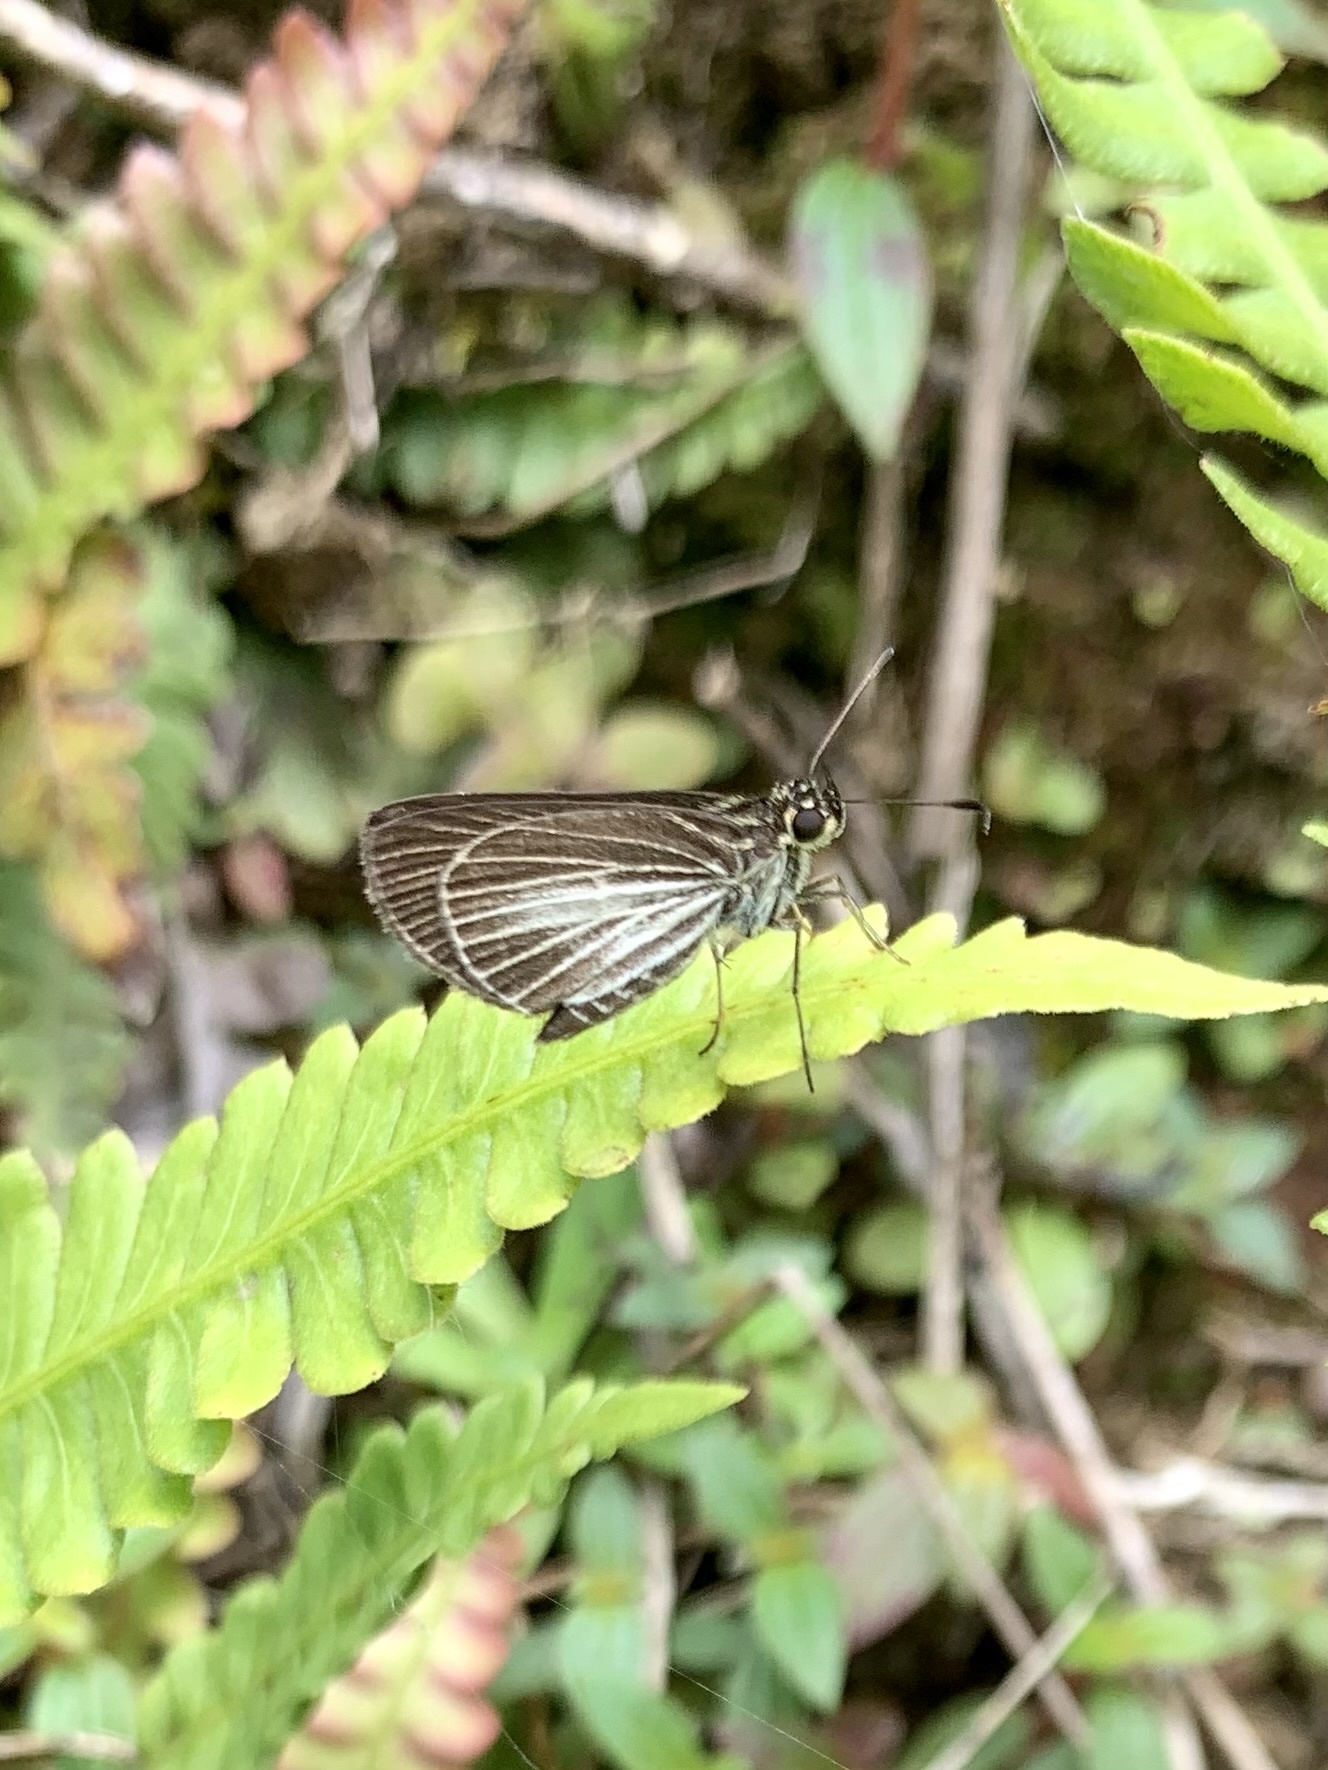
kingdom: Animalia
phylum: Arthropoda
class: Insecta
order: Lepidoptera
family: Hesperiidae
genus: Callimormus
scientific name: Callimormus radiola
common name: Radiant skipper
